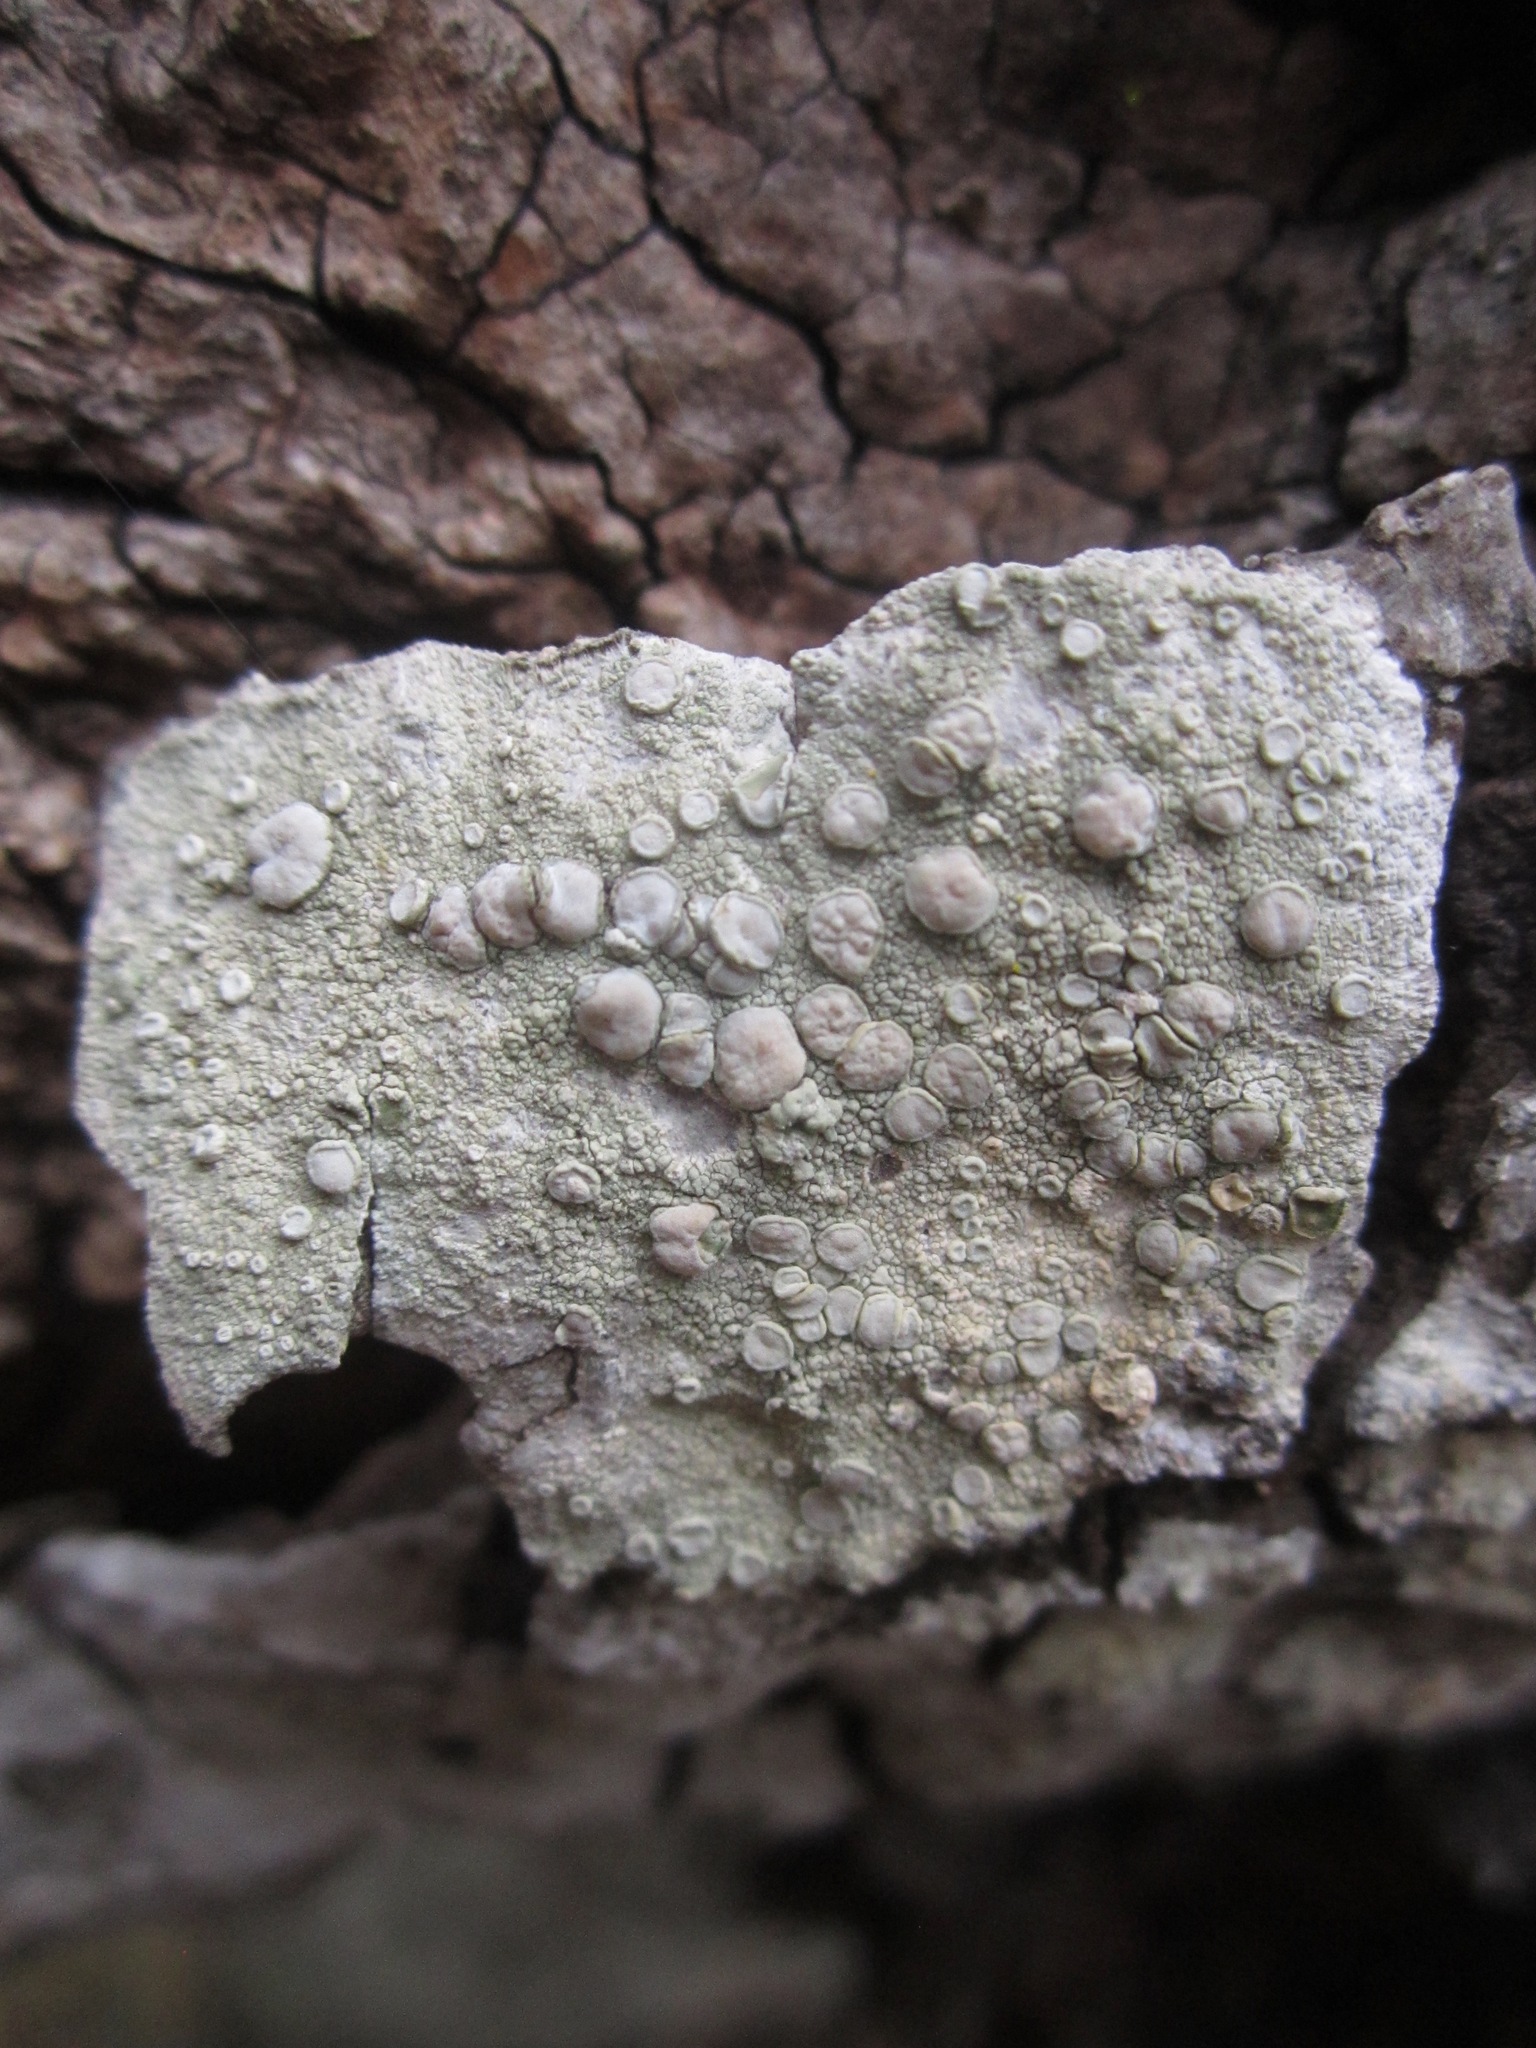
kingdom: Fungi
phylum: Ascomycota
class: Lecanoromycetes
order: Lecanorales
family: Lecanoraceae
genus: Lecanora
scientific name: Lecanora caesiorubella
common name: Frosted rim-lichen
